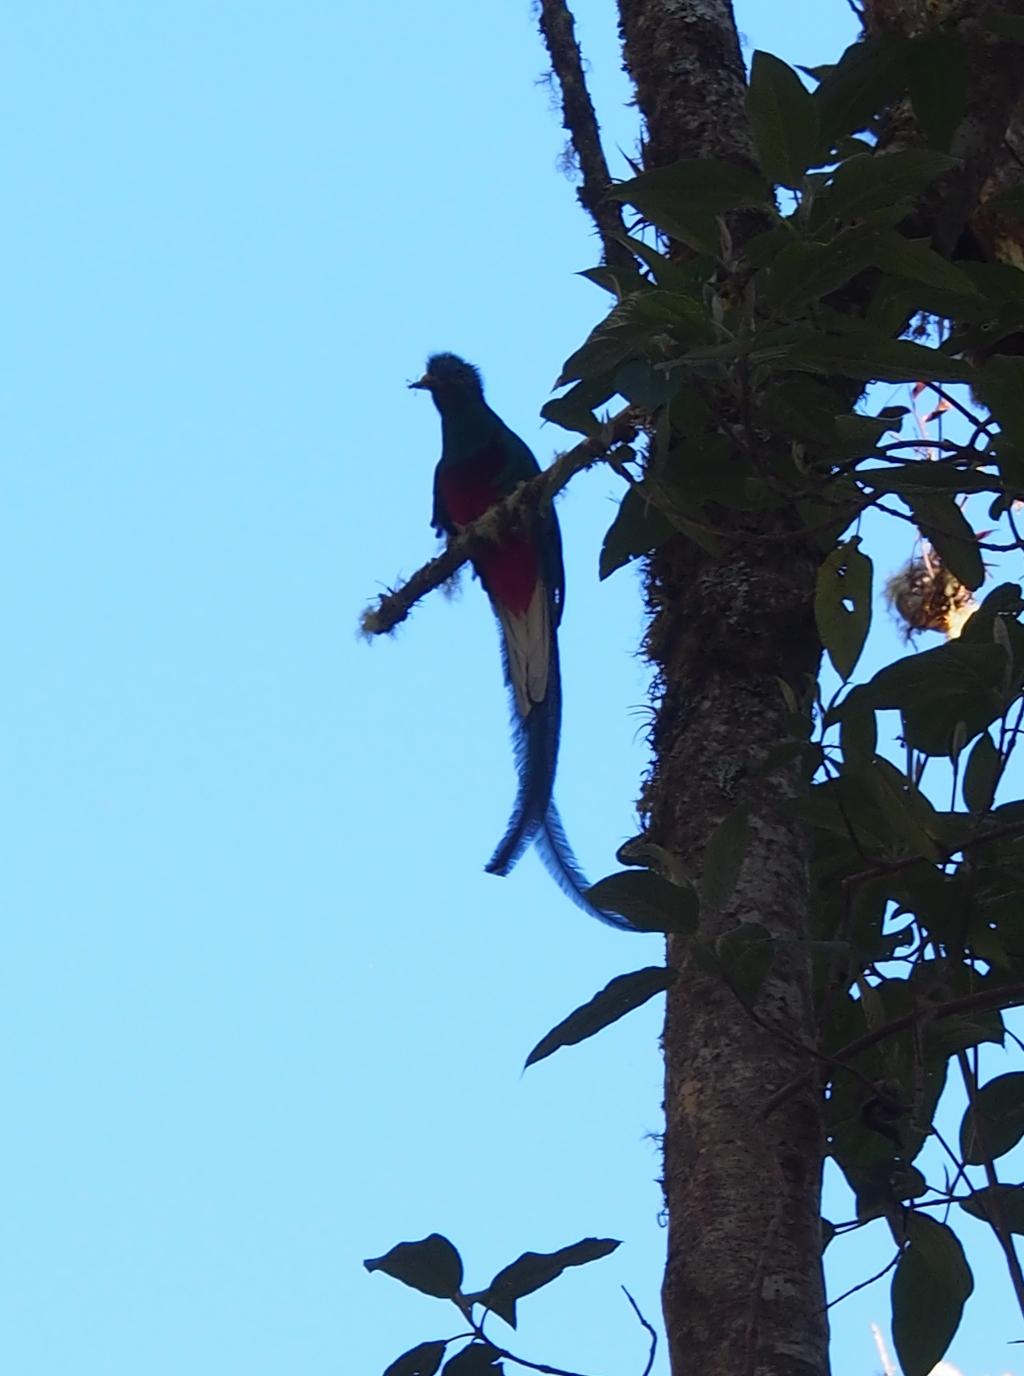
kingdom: Animalia
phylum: Chordata
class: Aves
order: Trogoniformes
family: Trogonidae
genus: Pharomachrus
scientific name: Pharomachrus mocinno
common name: Resplendent quetzal
